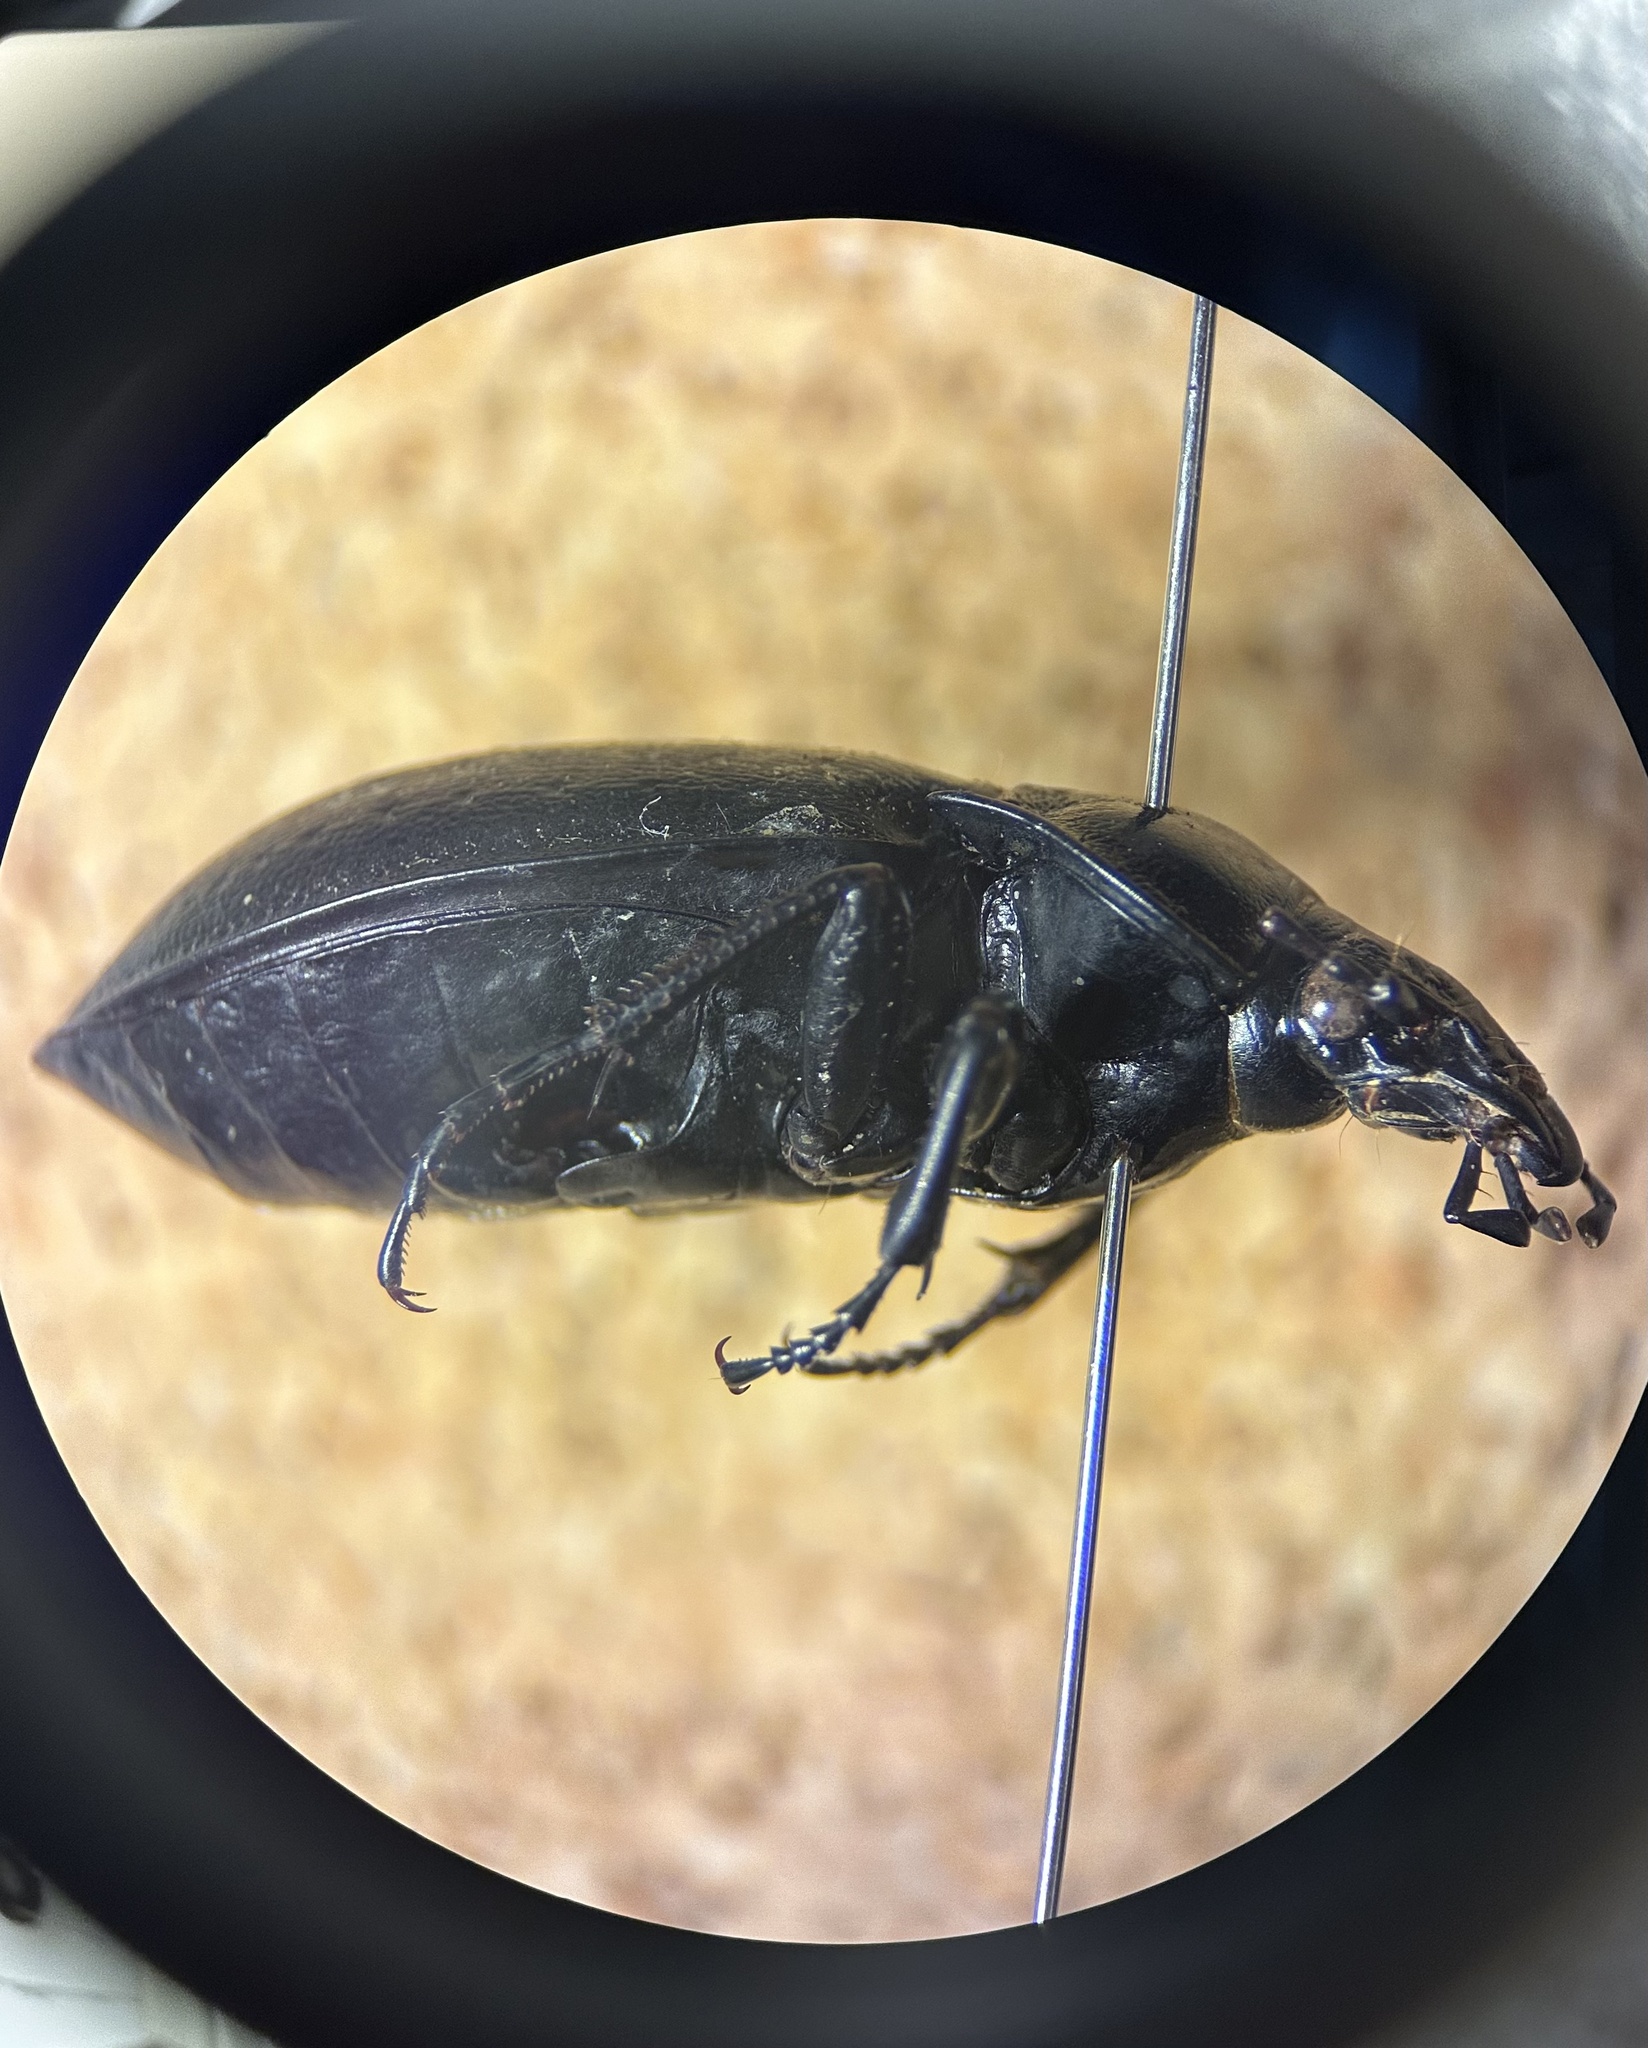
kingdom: Animalia
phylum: Arthropoda
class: Insecta
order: Coleoptera
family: Carabidae
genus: Carabus
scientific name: Carabus nemoralis
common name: European ground beetle
